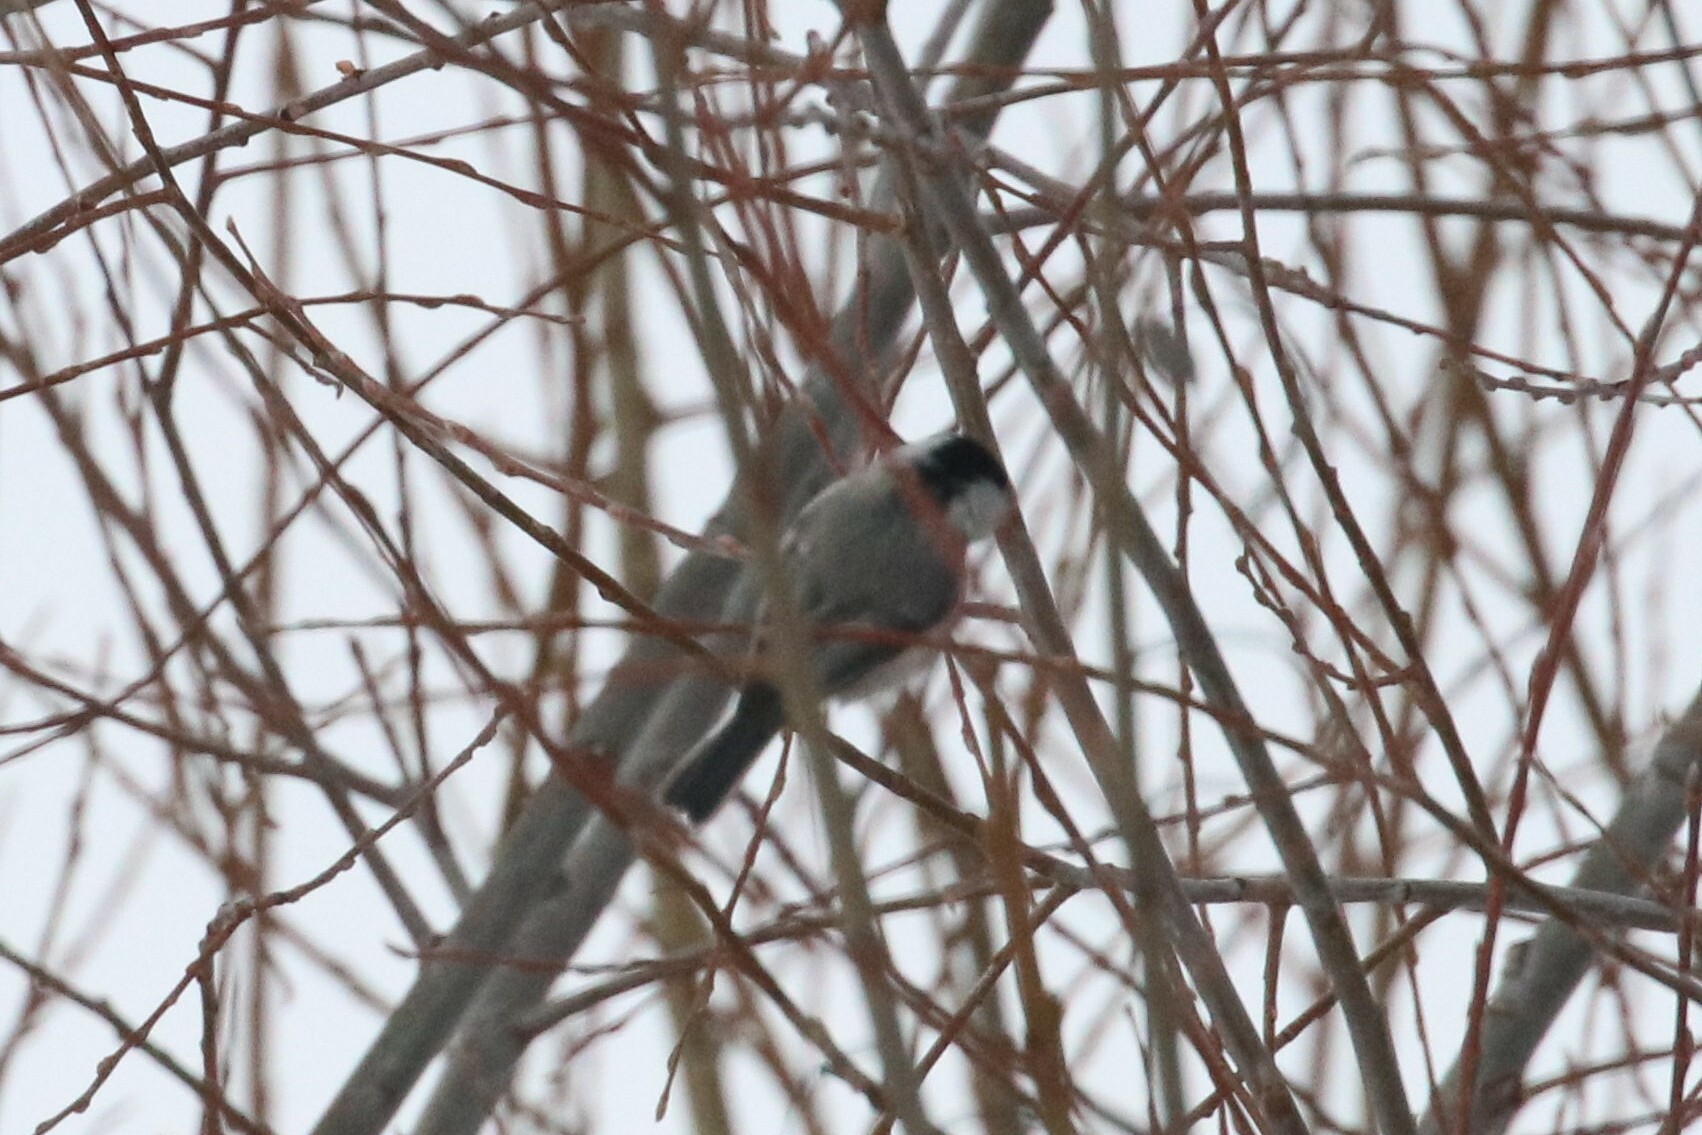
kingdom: Animalia
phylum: Chordata
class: Aves
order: Passeriformes
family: Paridae
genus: Poecile
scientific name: Poecile montanus
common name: Willow tit
